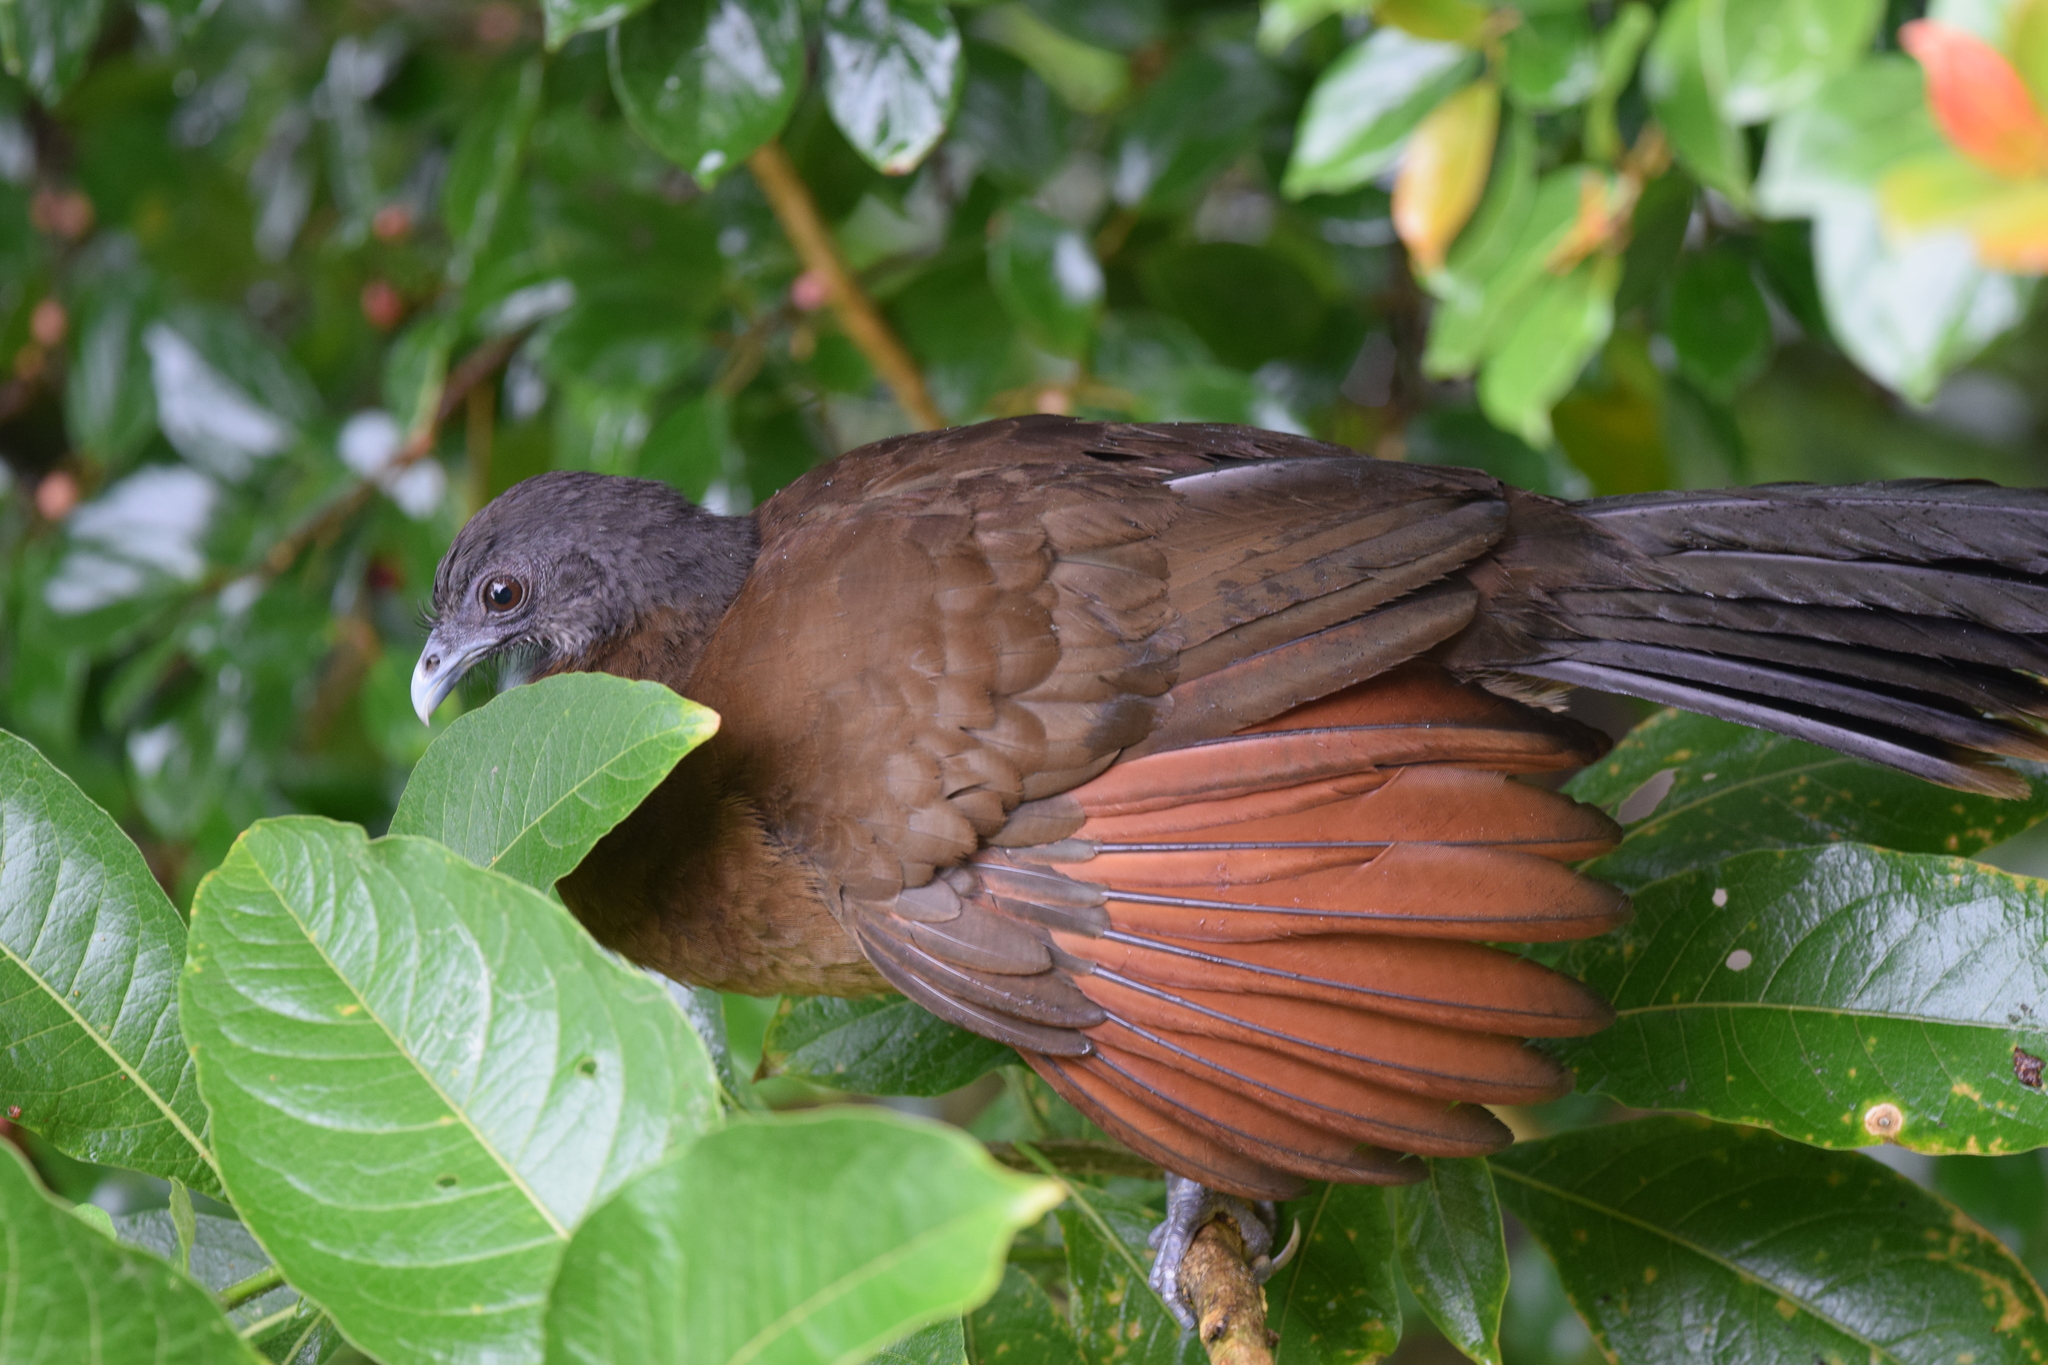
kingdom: Animalia
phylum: Chordata
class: Aves
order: Galliformes
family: Cracidae
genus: Ortalis
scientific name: Ortalis cinereiceps
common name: Grey-headed chachalaca
